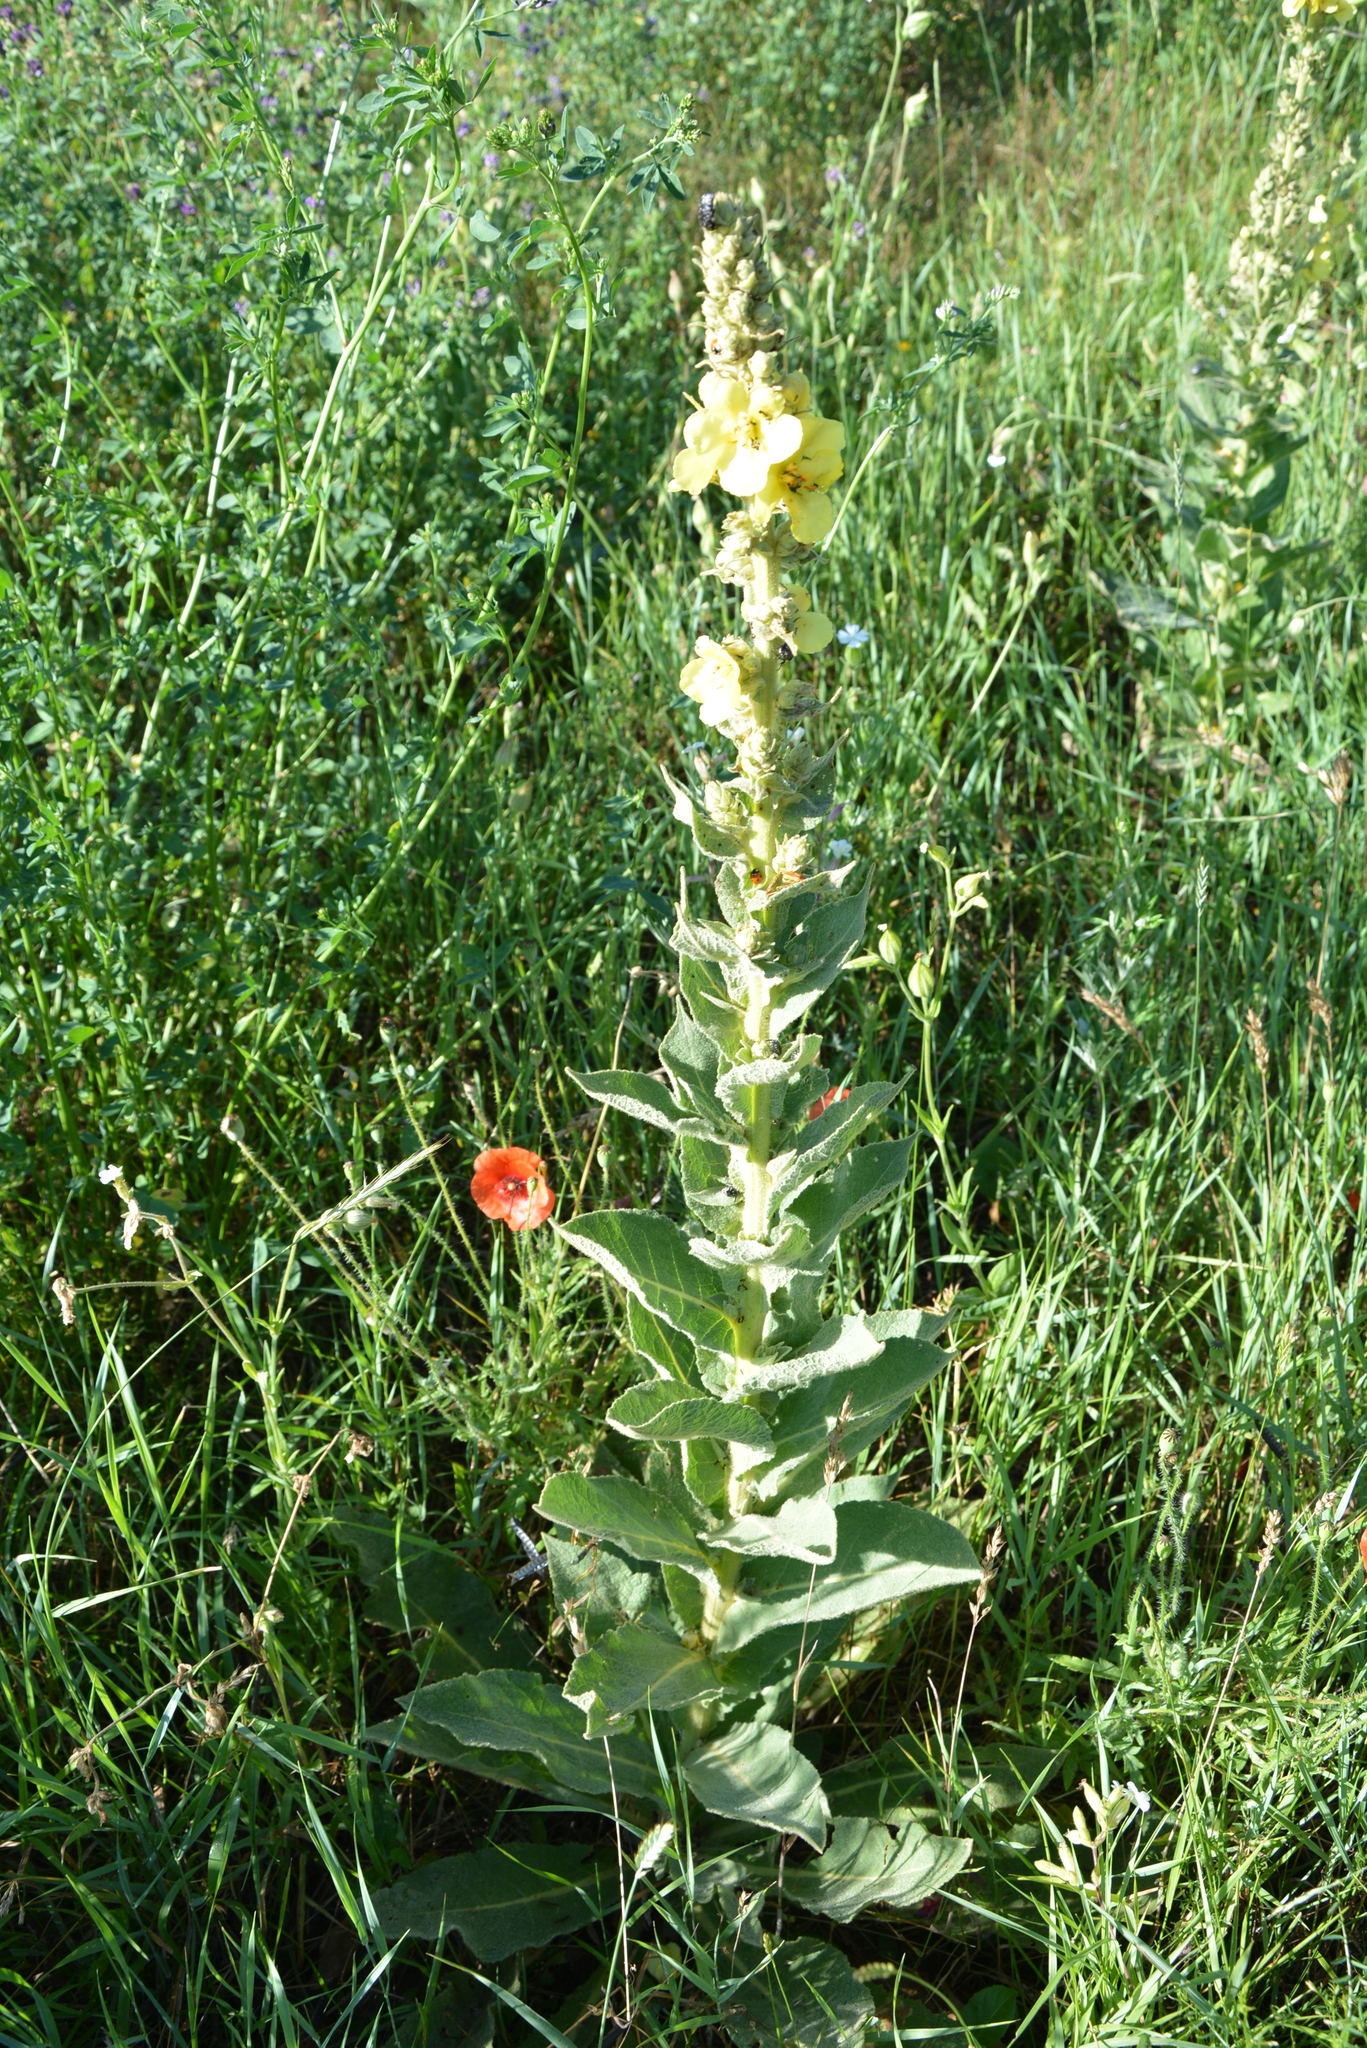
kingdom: Plantae
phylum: Tracheophyta
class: Magnoliopsida
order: Lamiales
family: Scrophulariaceae
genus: Verbascum
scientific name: Verbascum phlomoides
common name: Orange mullein
